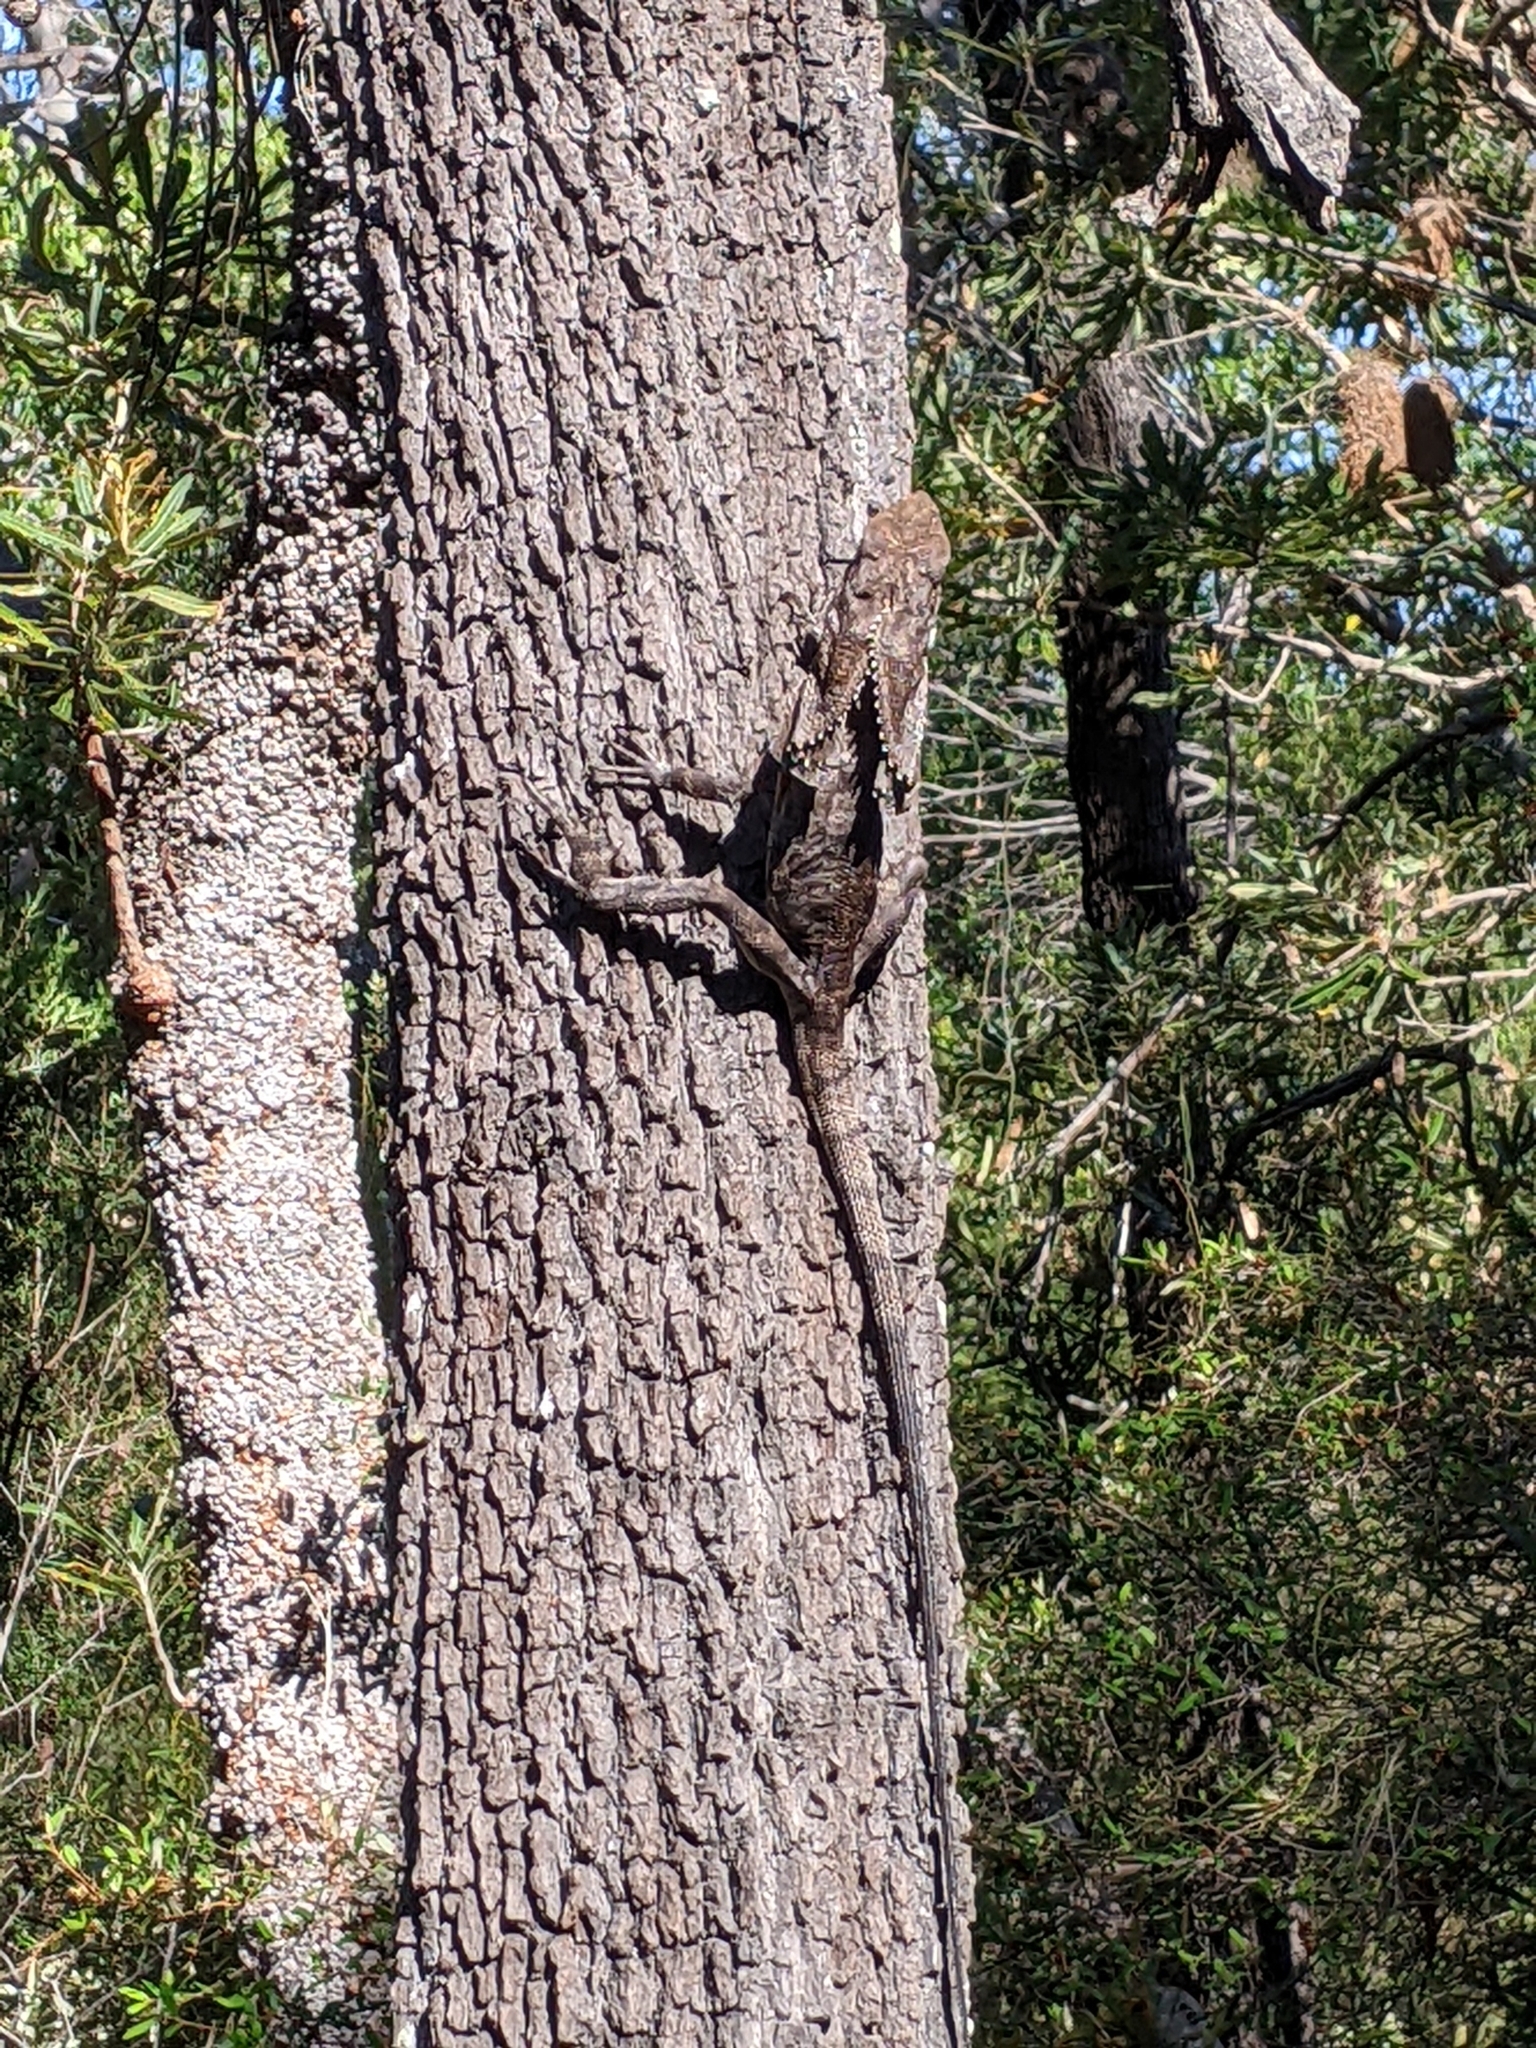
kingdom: Animalia
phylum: Chordata
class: Squamata
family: Agamidae
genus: Chlamydosaurus
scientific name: Chlamydosaurus kingii
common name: Frilled lizard
